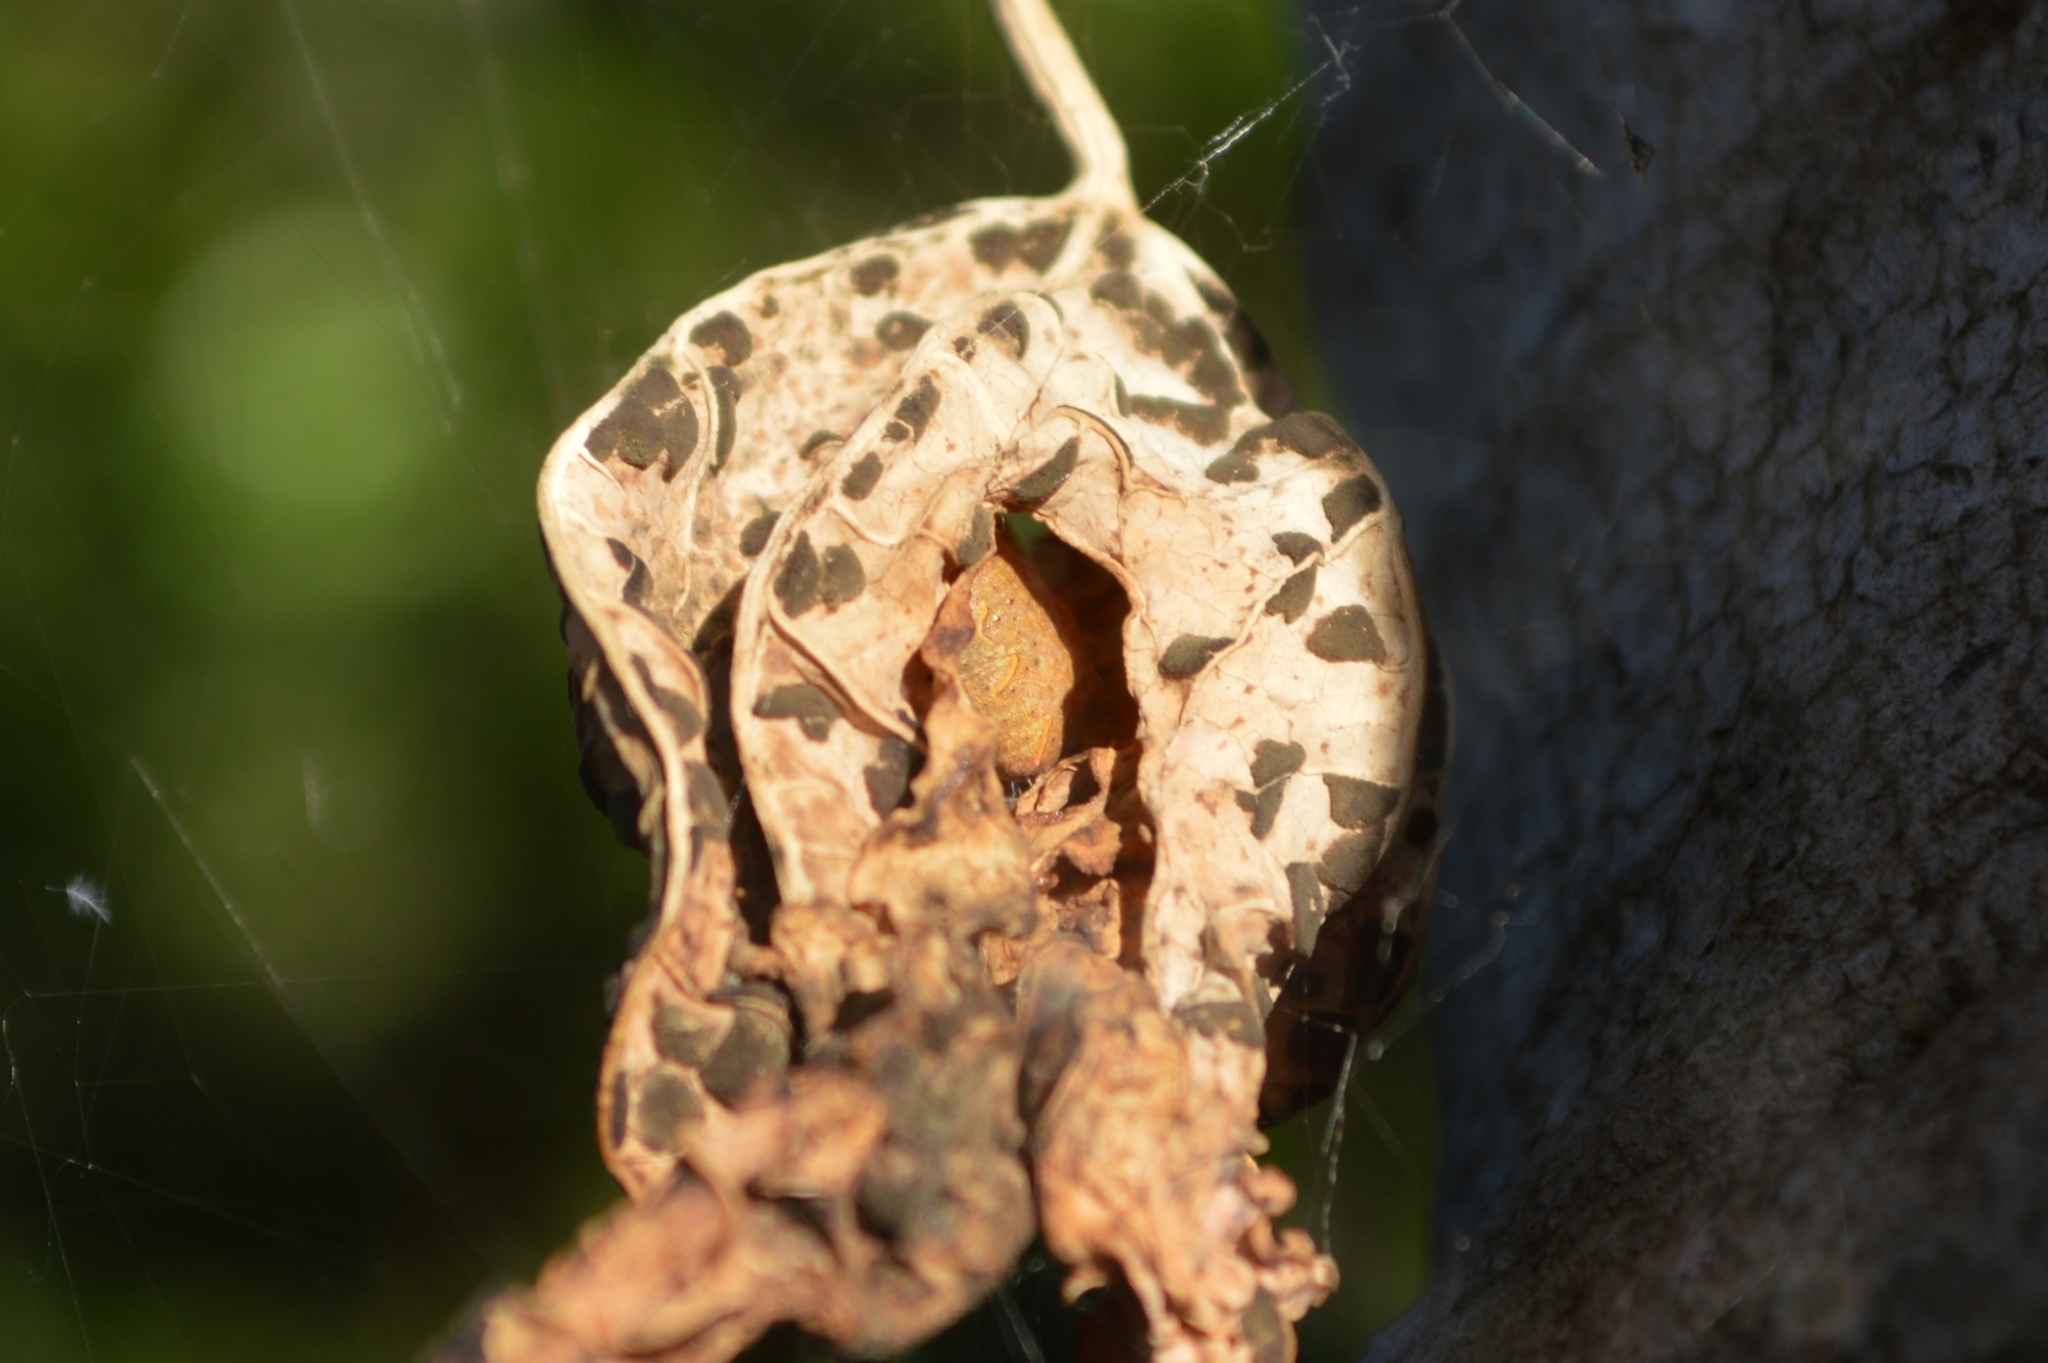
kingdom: Animalia
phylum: Arthropoda
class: Arachnida
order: Araneae
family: Araneidae
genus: Cyrtophora
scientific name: Cyrtophora citricola
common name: Orb weavers
